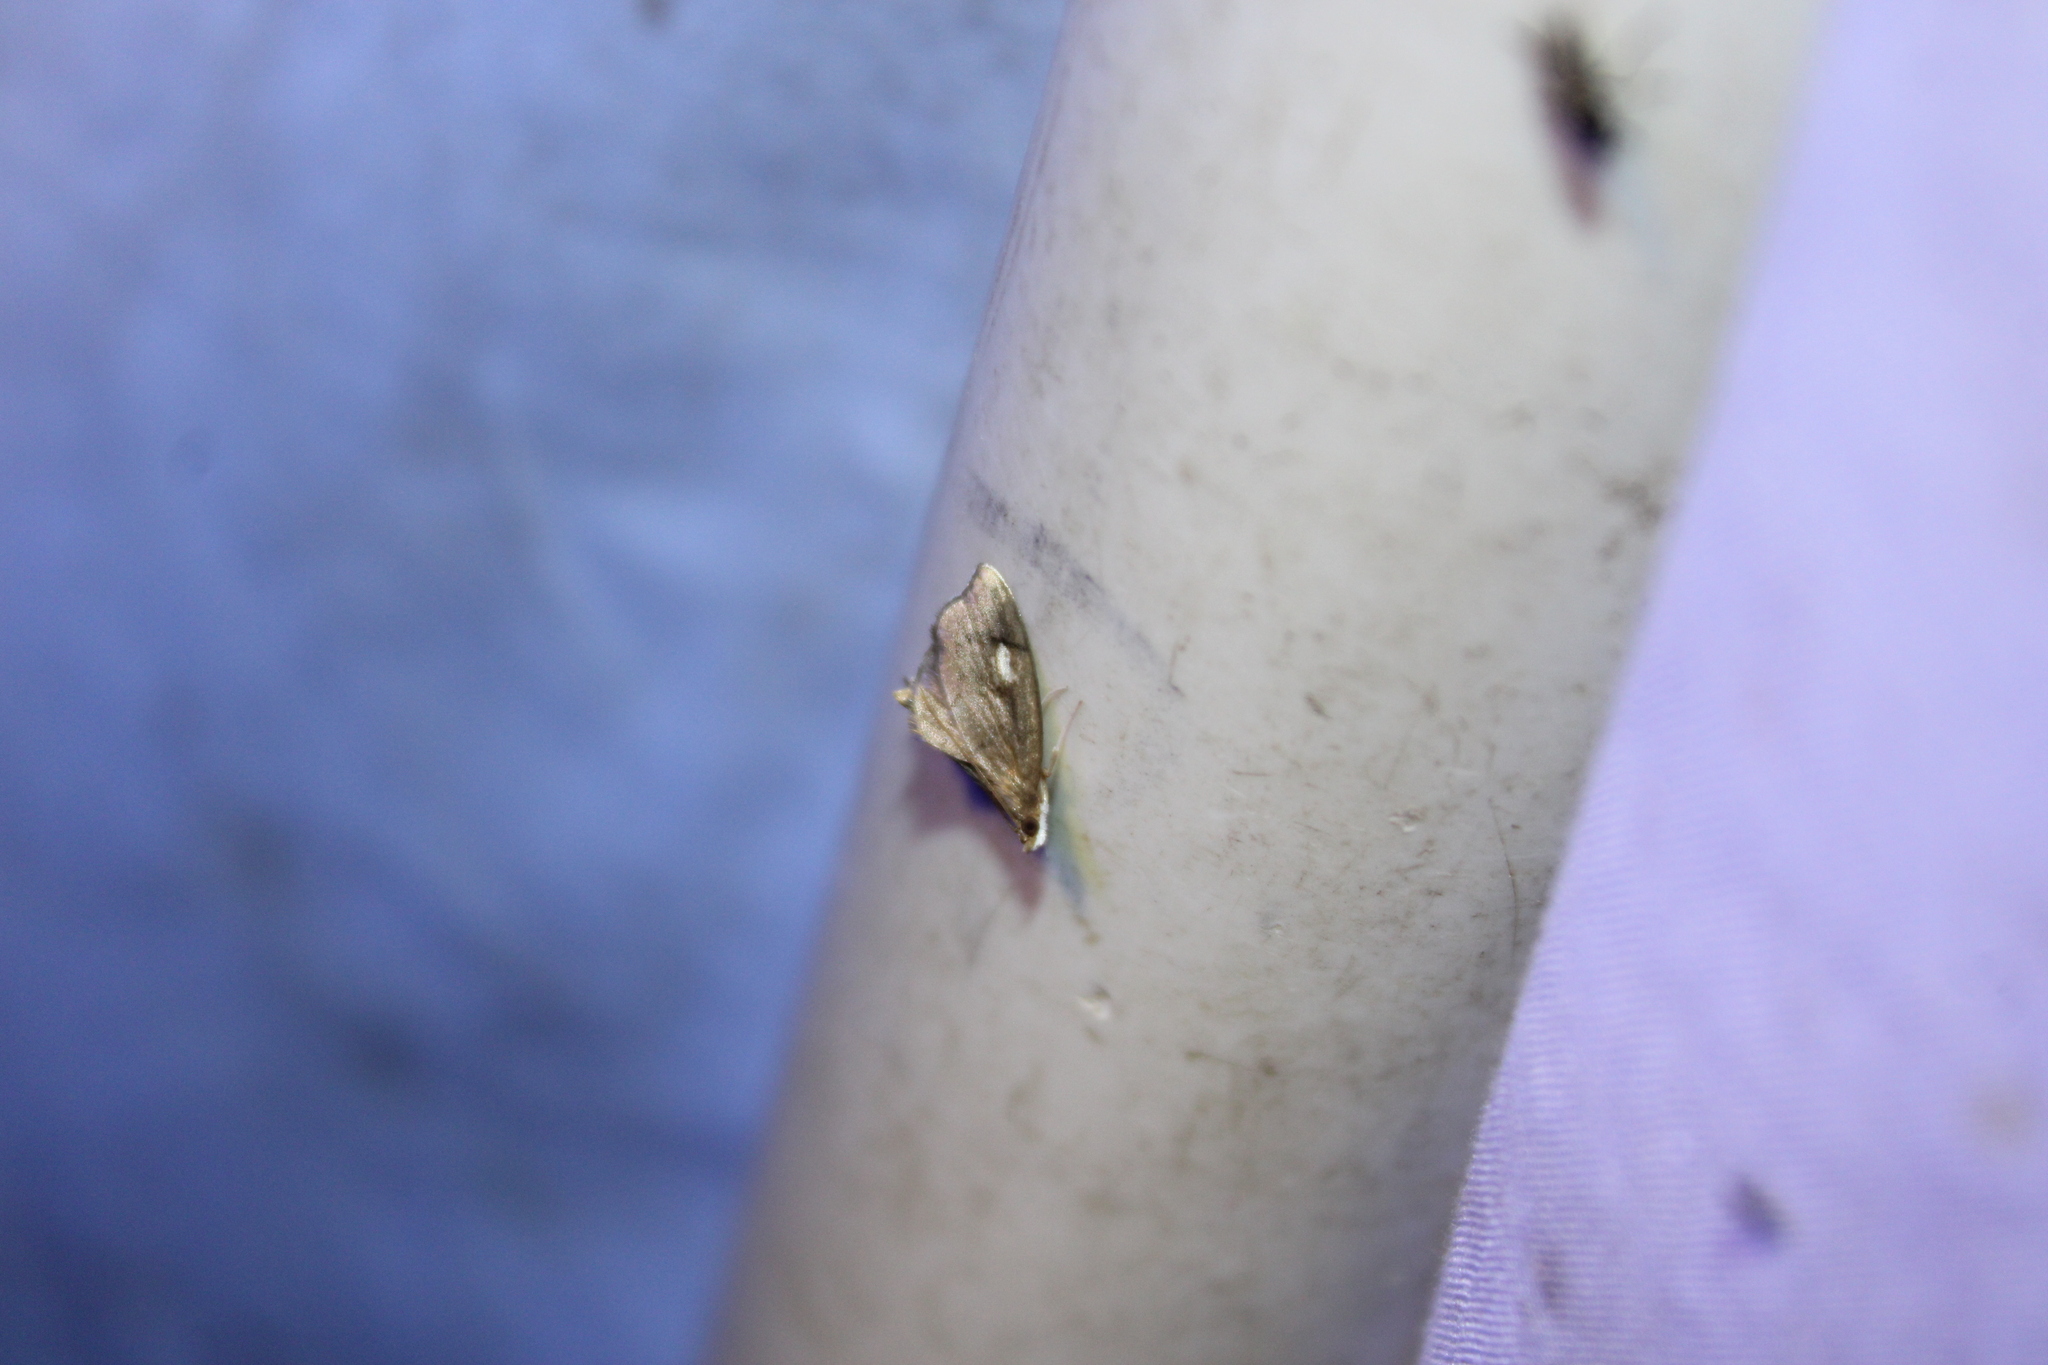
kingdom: Animalia
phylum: Arthropoda
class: Insecta
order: Lepidoptera
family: Crambidae
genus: Perispasta
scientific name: Perispasta caeculalis
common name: Titian peale's moth
